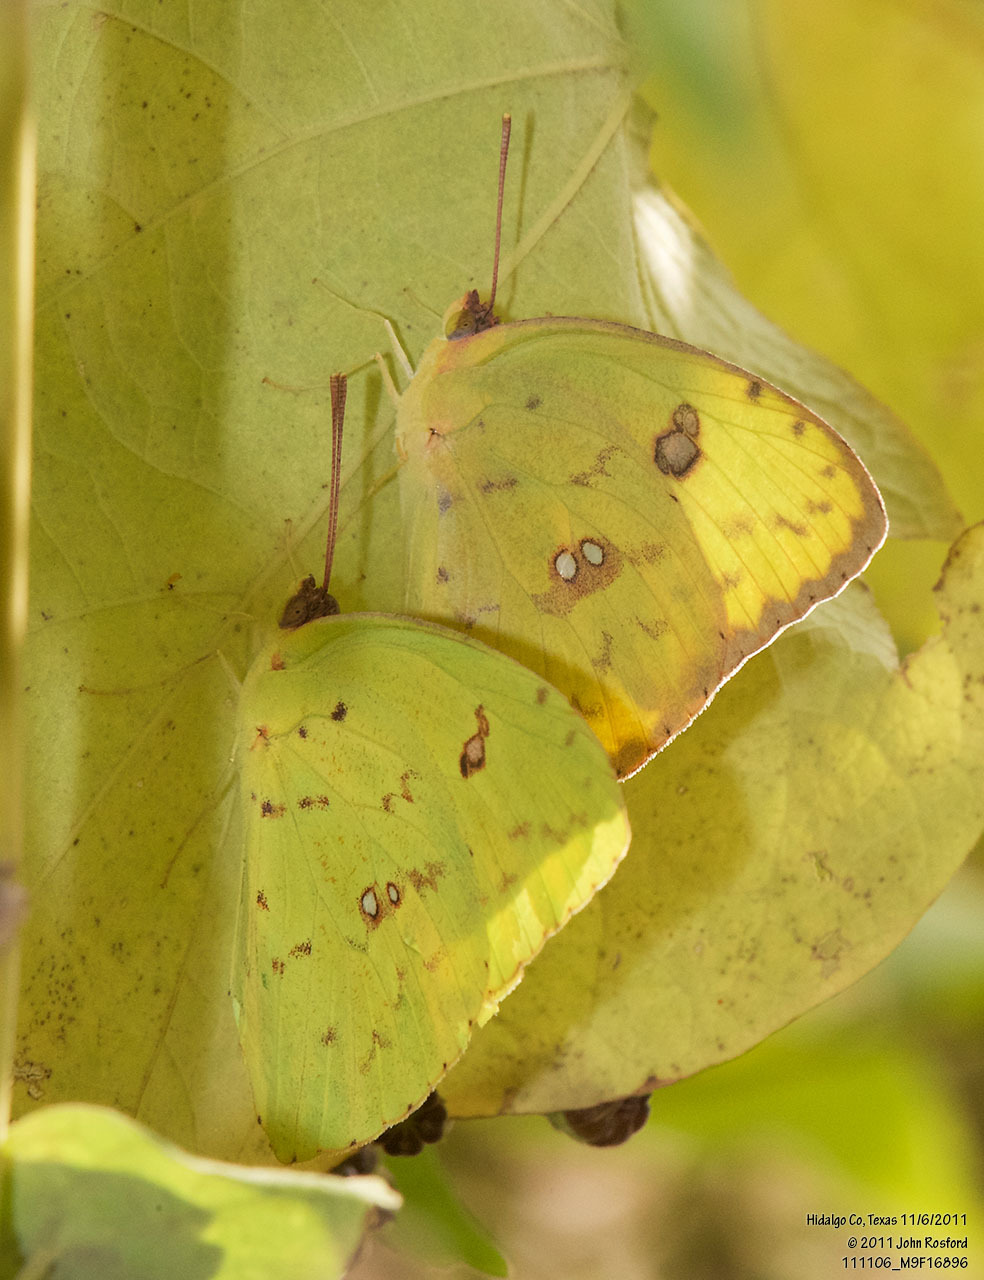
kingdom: Animalia
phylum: Arthropoda
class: Insecta
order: Lepidoptera
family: Pieridae
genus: Phoebis
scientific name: Phoebis sennae
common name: Cloudless sulphur
